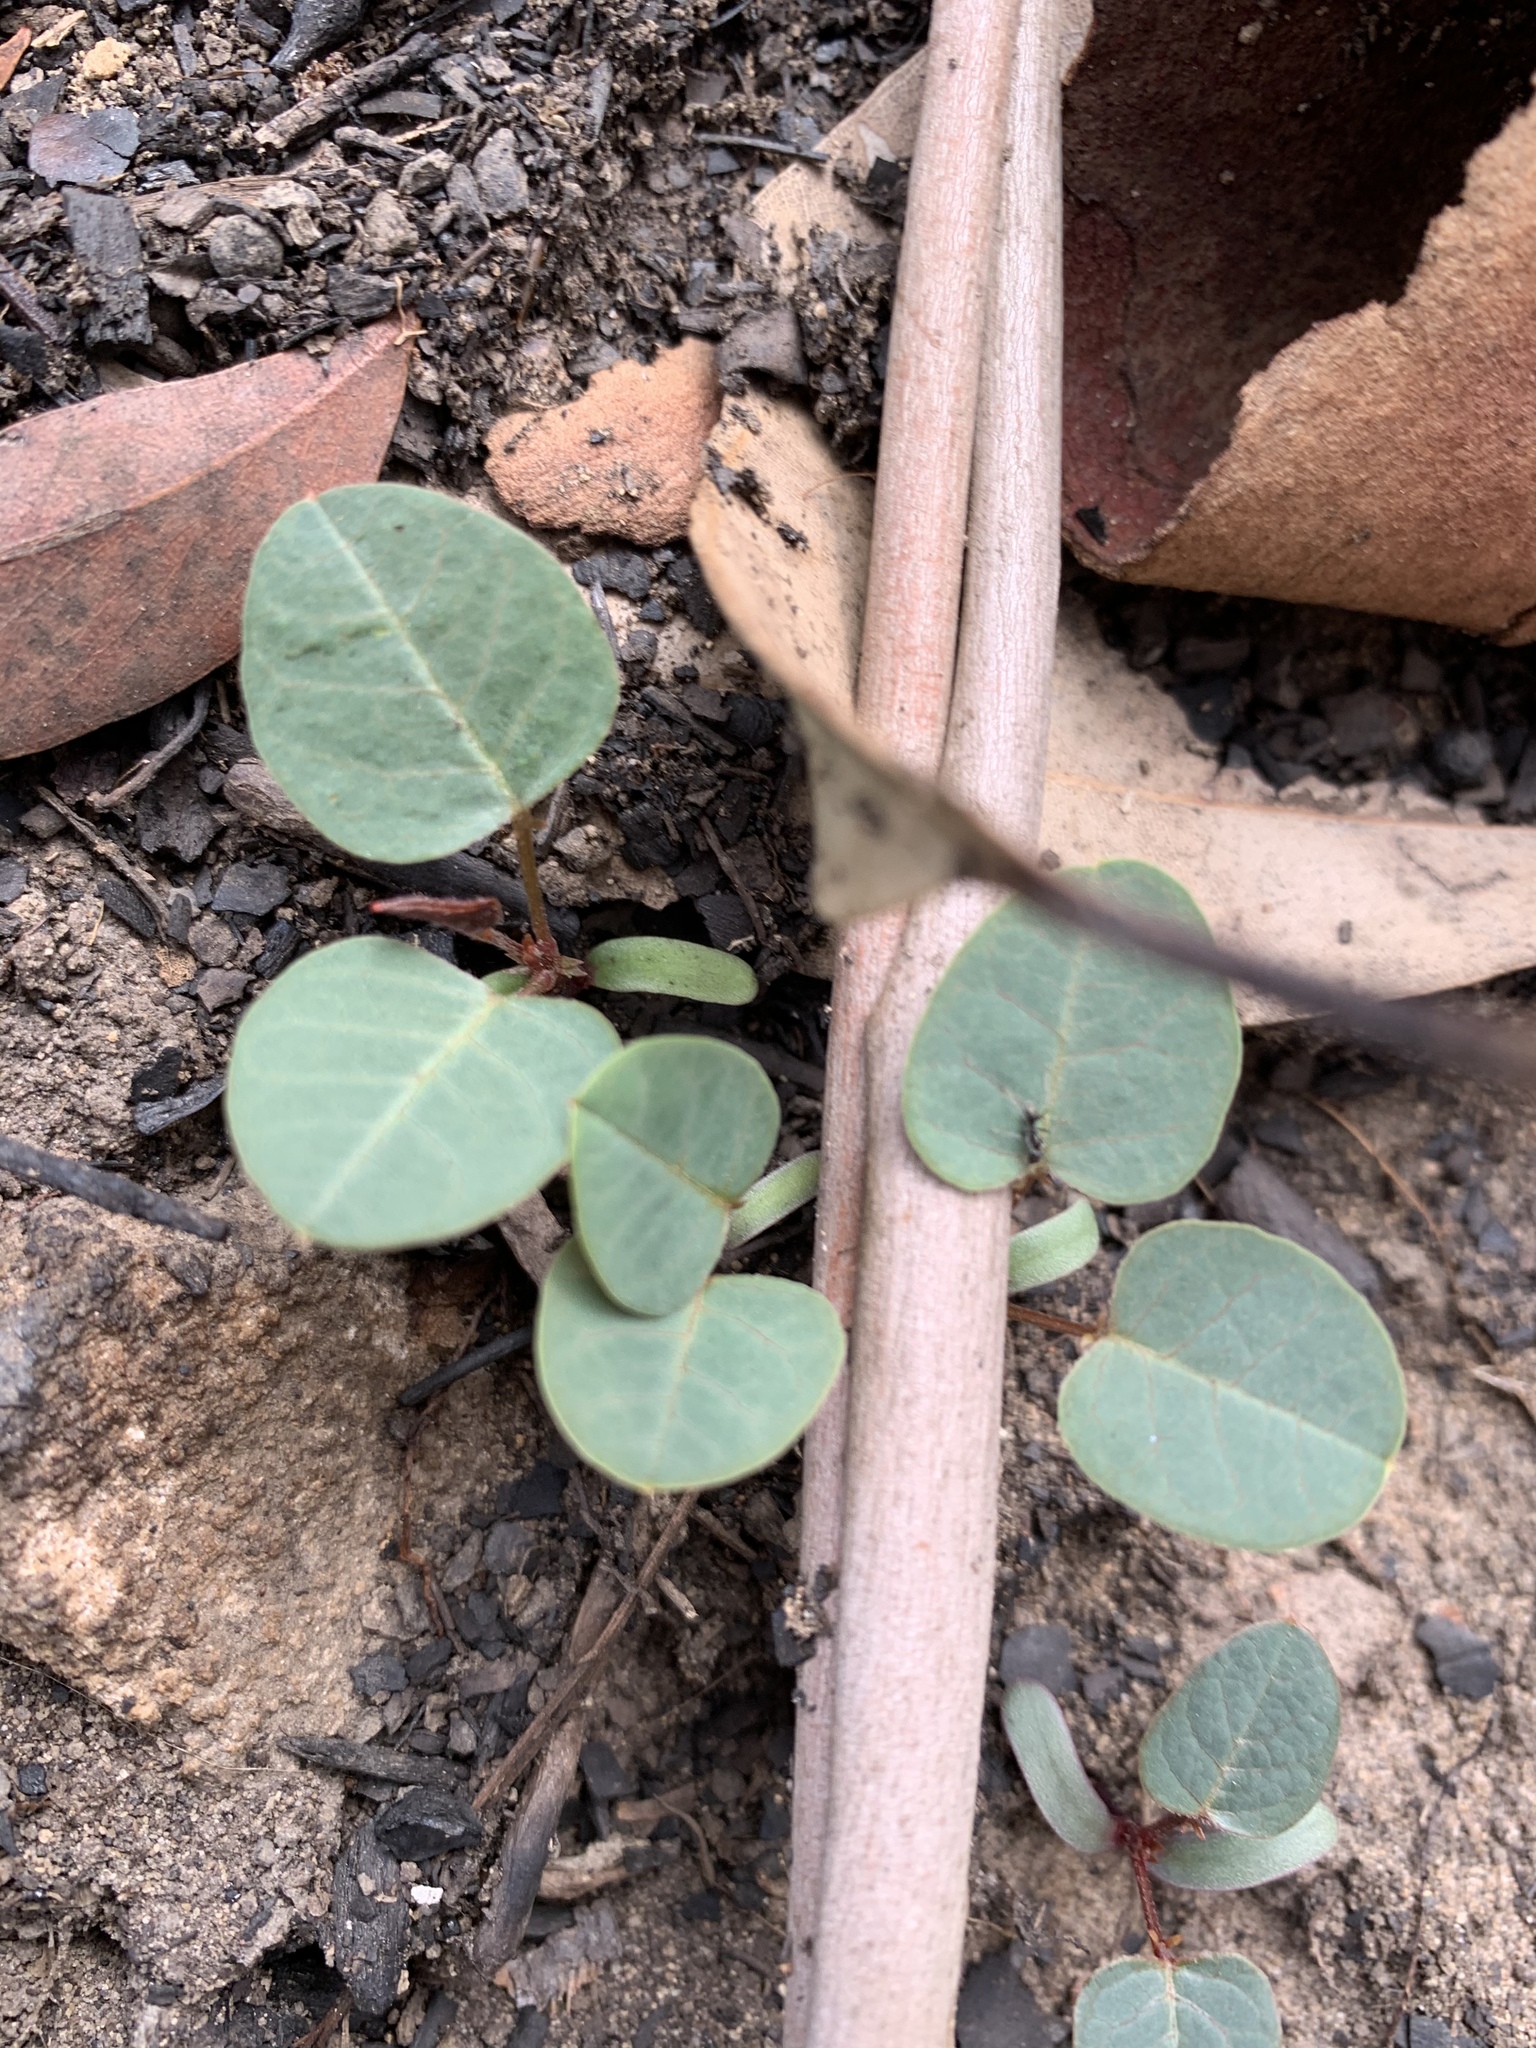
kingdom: Plantae
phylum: Tracheophyta
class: Magnoliopsida
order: Fabales
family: Fabaceae
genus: Hardenbergia
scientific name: Hardenbergia violacea
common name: Coral-pea
